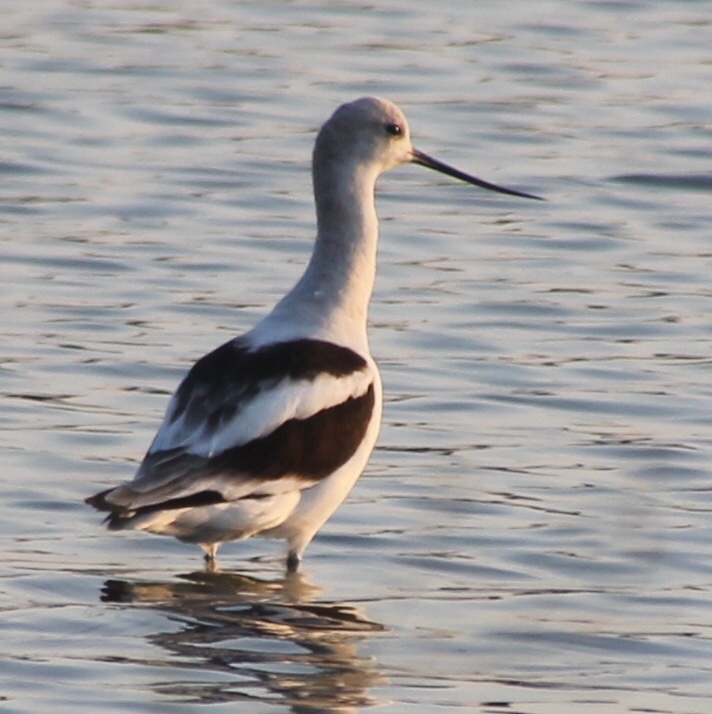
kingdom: Animalia
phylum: Chordata
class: Aves
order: Charadriiformes
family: Recurvirostridae
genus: Recurvirostra
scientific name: Recurvirostra americana
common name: American avocet
